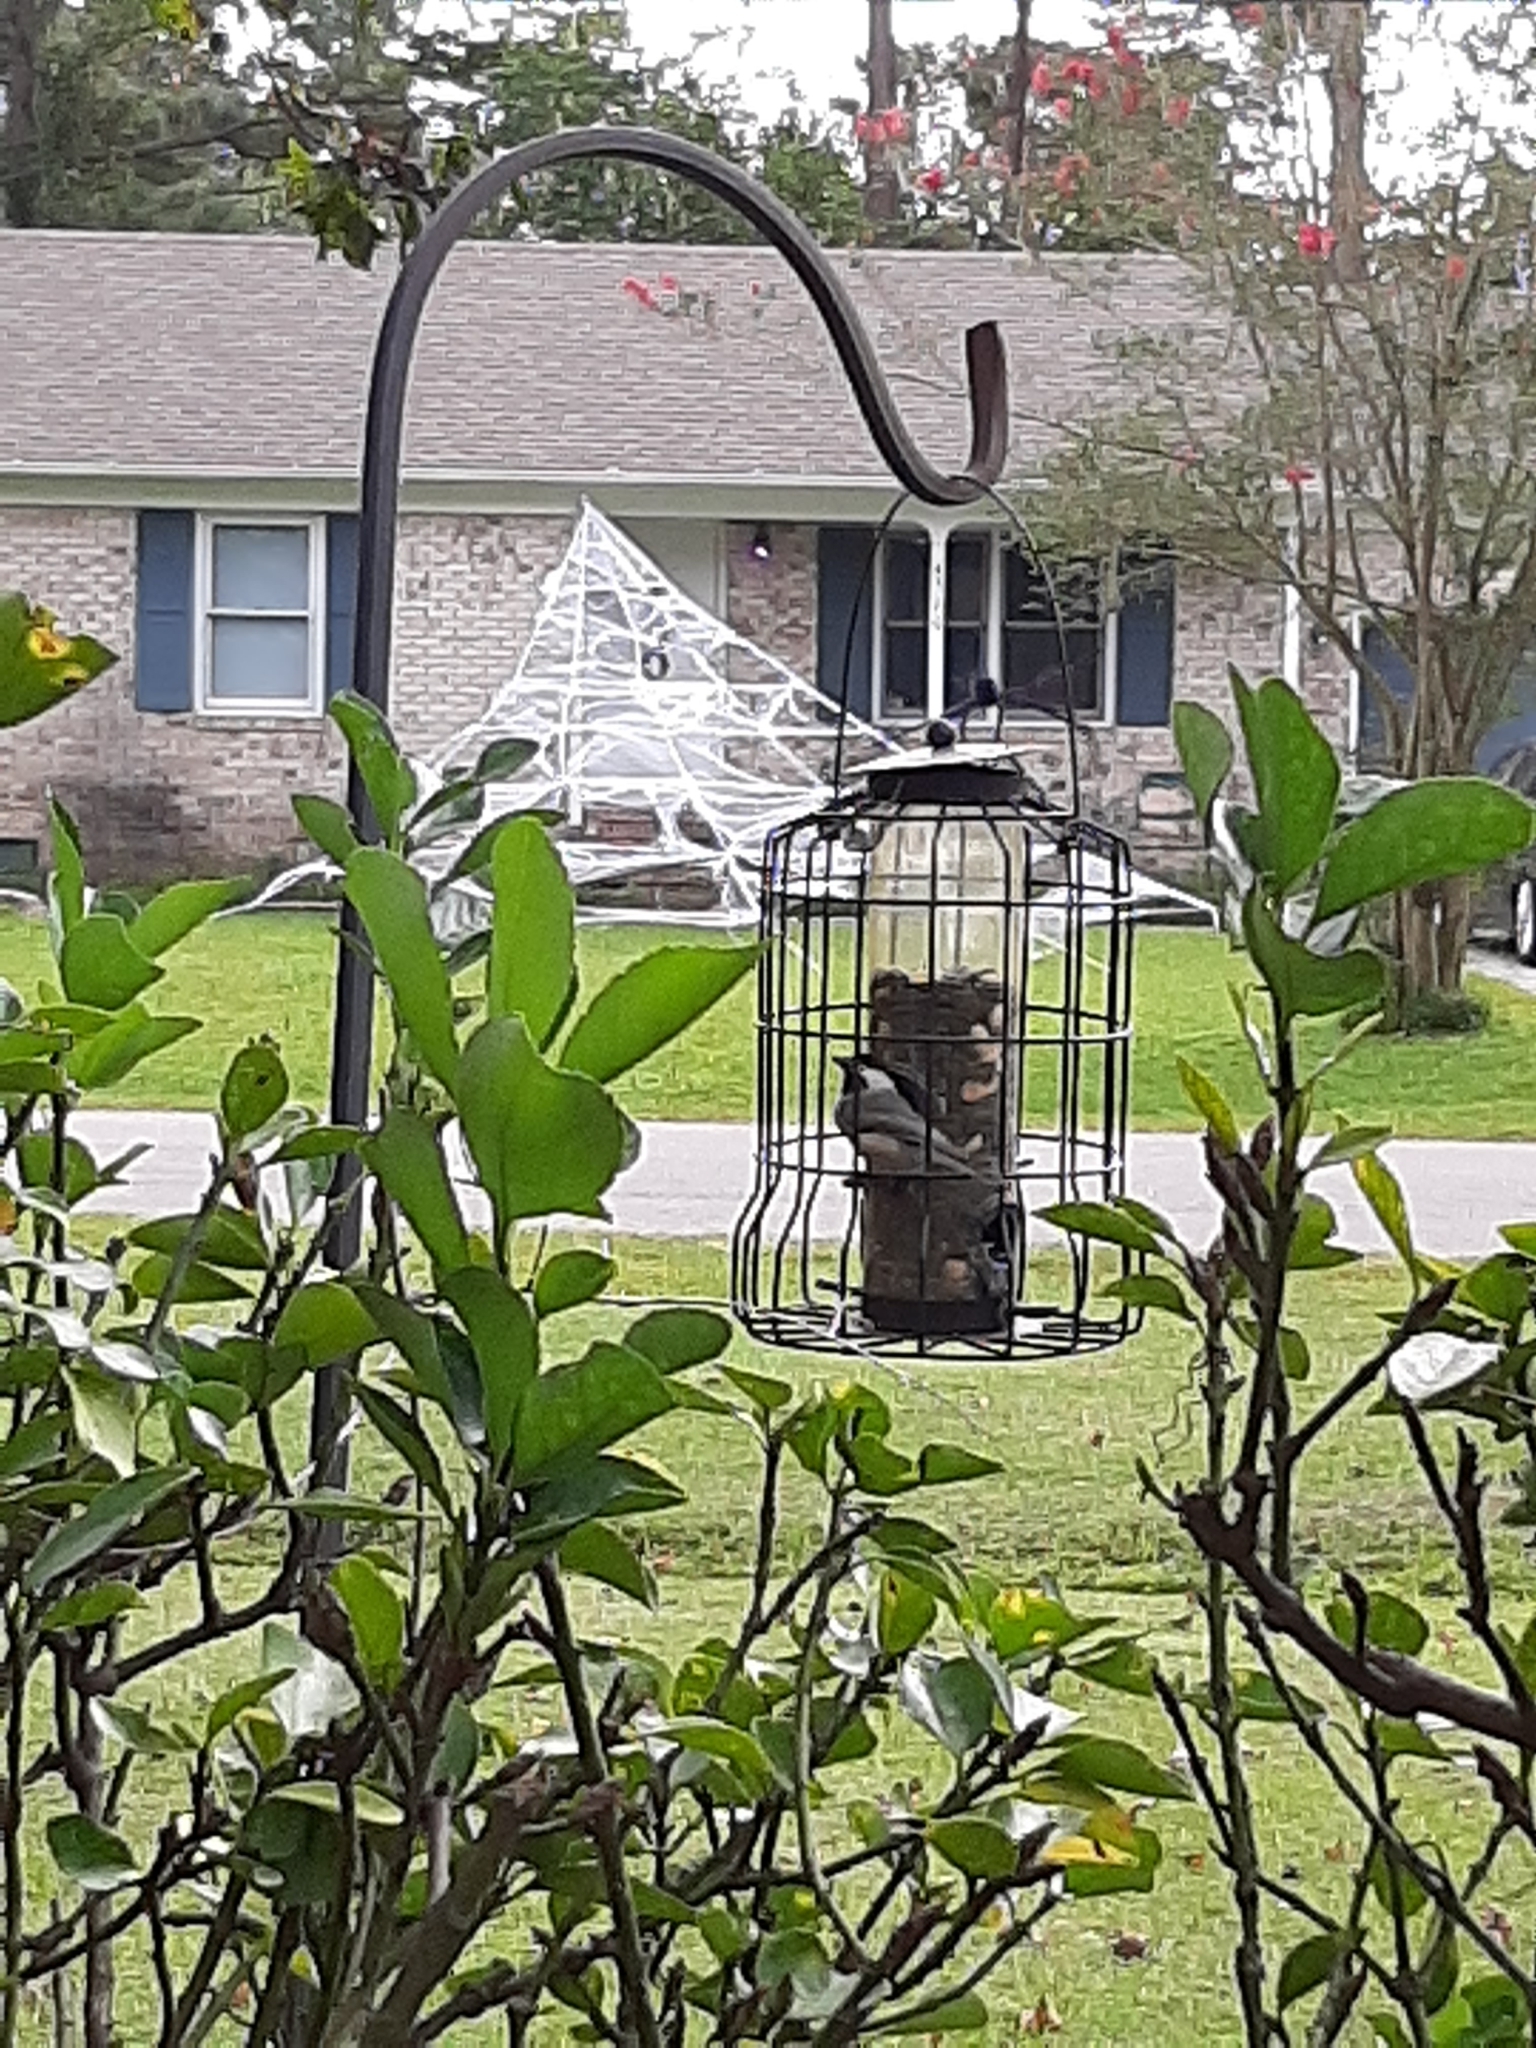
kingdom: Animalia
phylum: Chordata
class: Aves
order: Passeriformes
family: Paridae
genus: Poecile
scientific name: Poecile carolinensis
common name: Carolina chickadee
